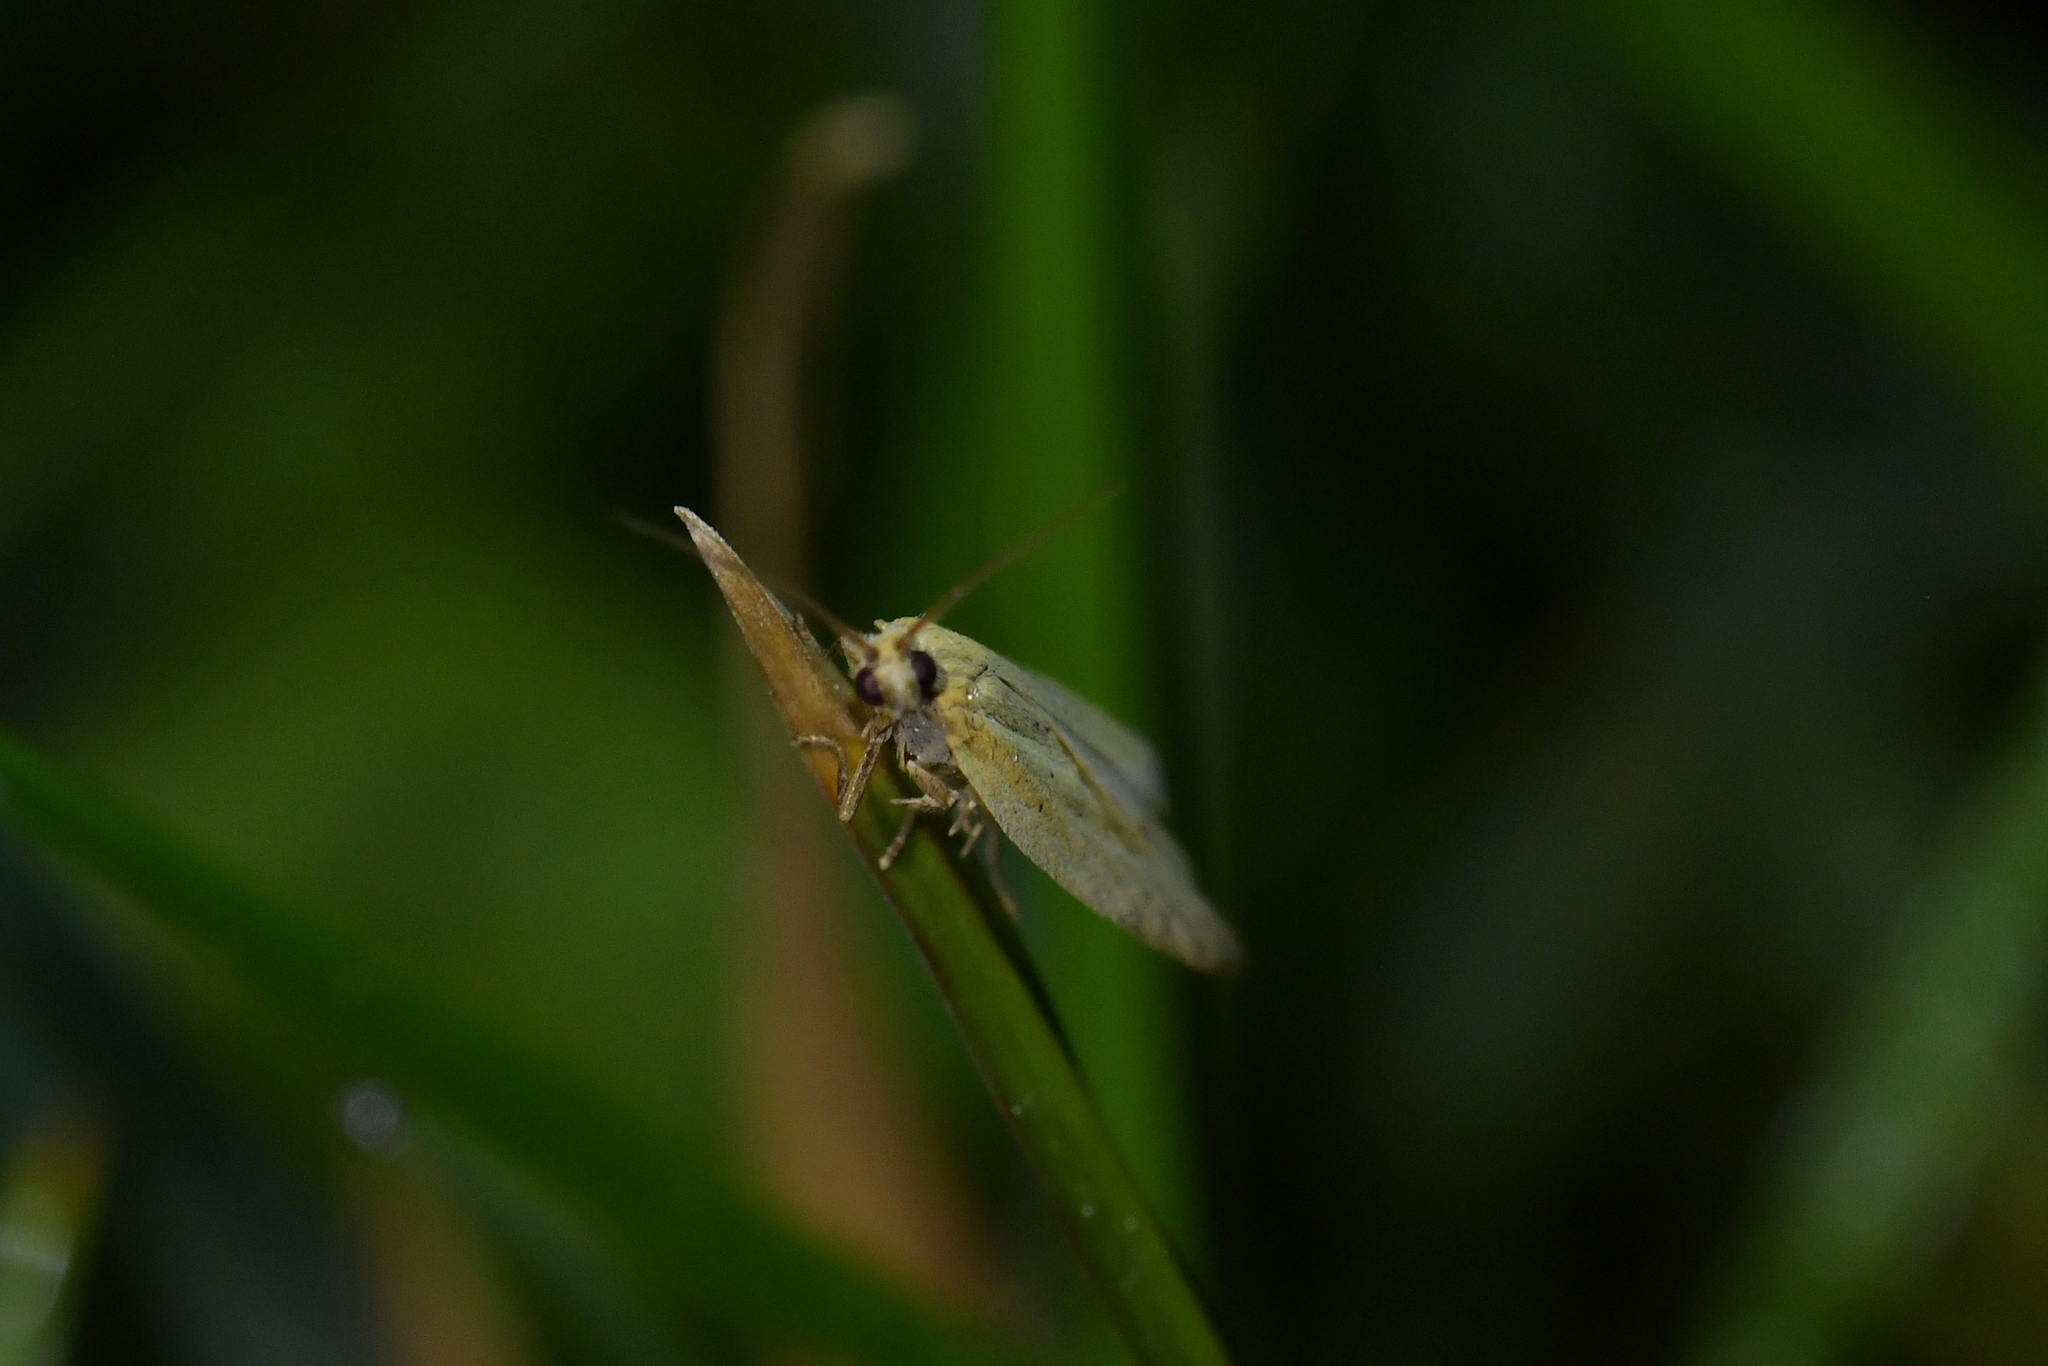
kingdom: Animalia
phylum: Arthropoda
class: Insecta
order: Lepidoptera
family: Tortricidae
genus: Clepsis
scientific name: Clepsis
